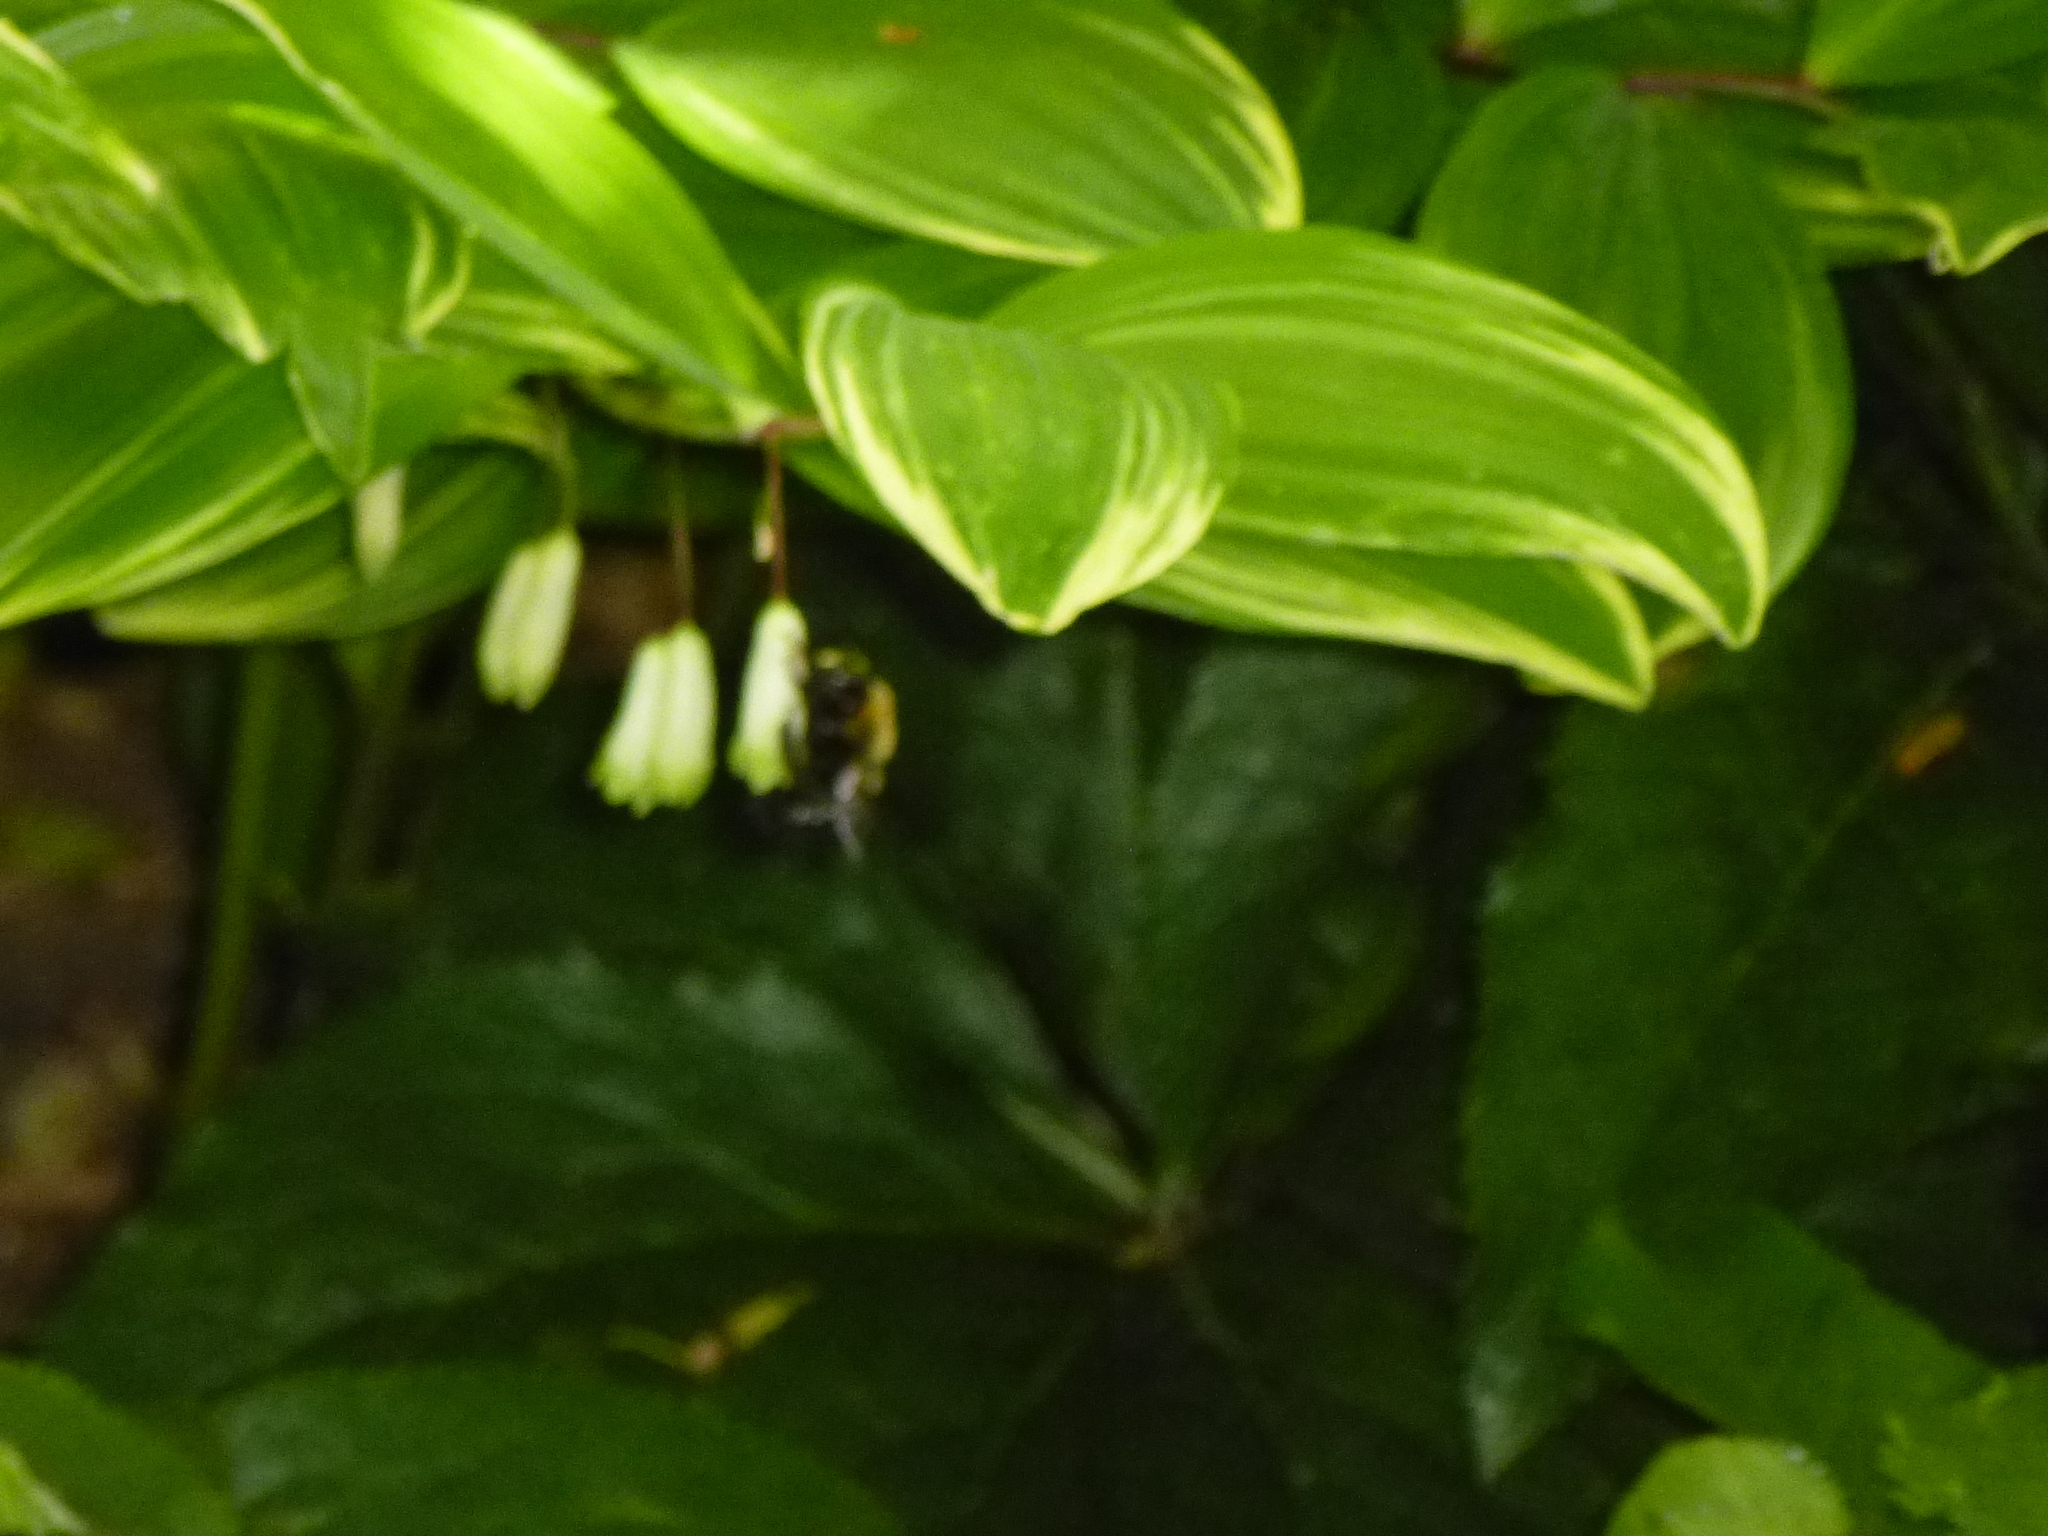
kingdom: Animalia
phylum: Arthropoda
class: Insecta
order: Hymenoptera
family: Apidae
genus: Xylocopa
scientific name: Xylocopa virginica
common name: Carpenter bee
